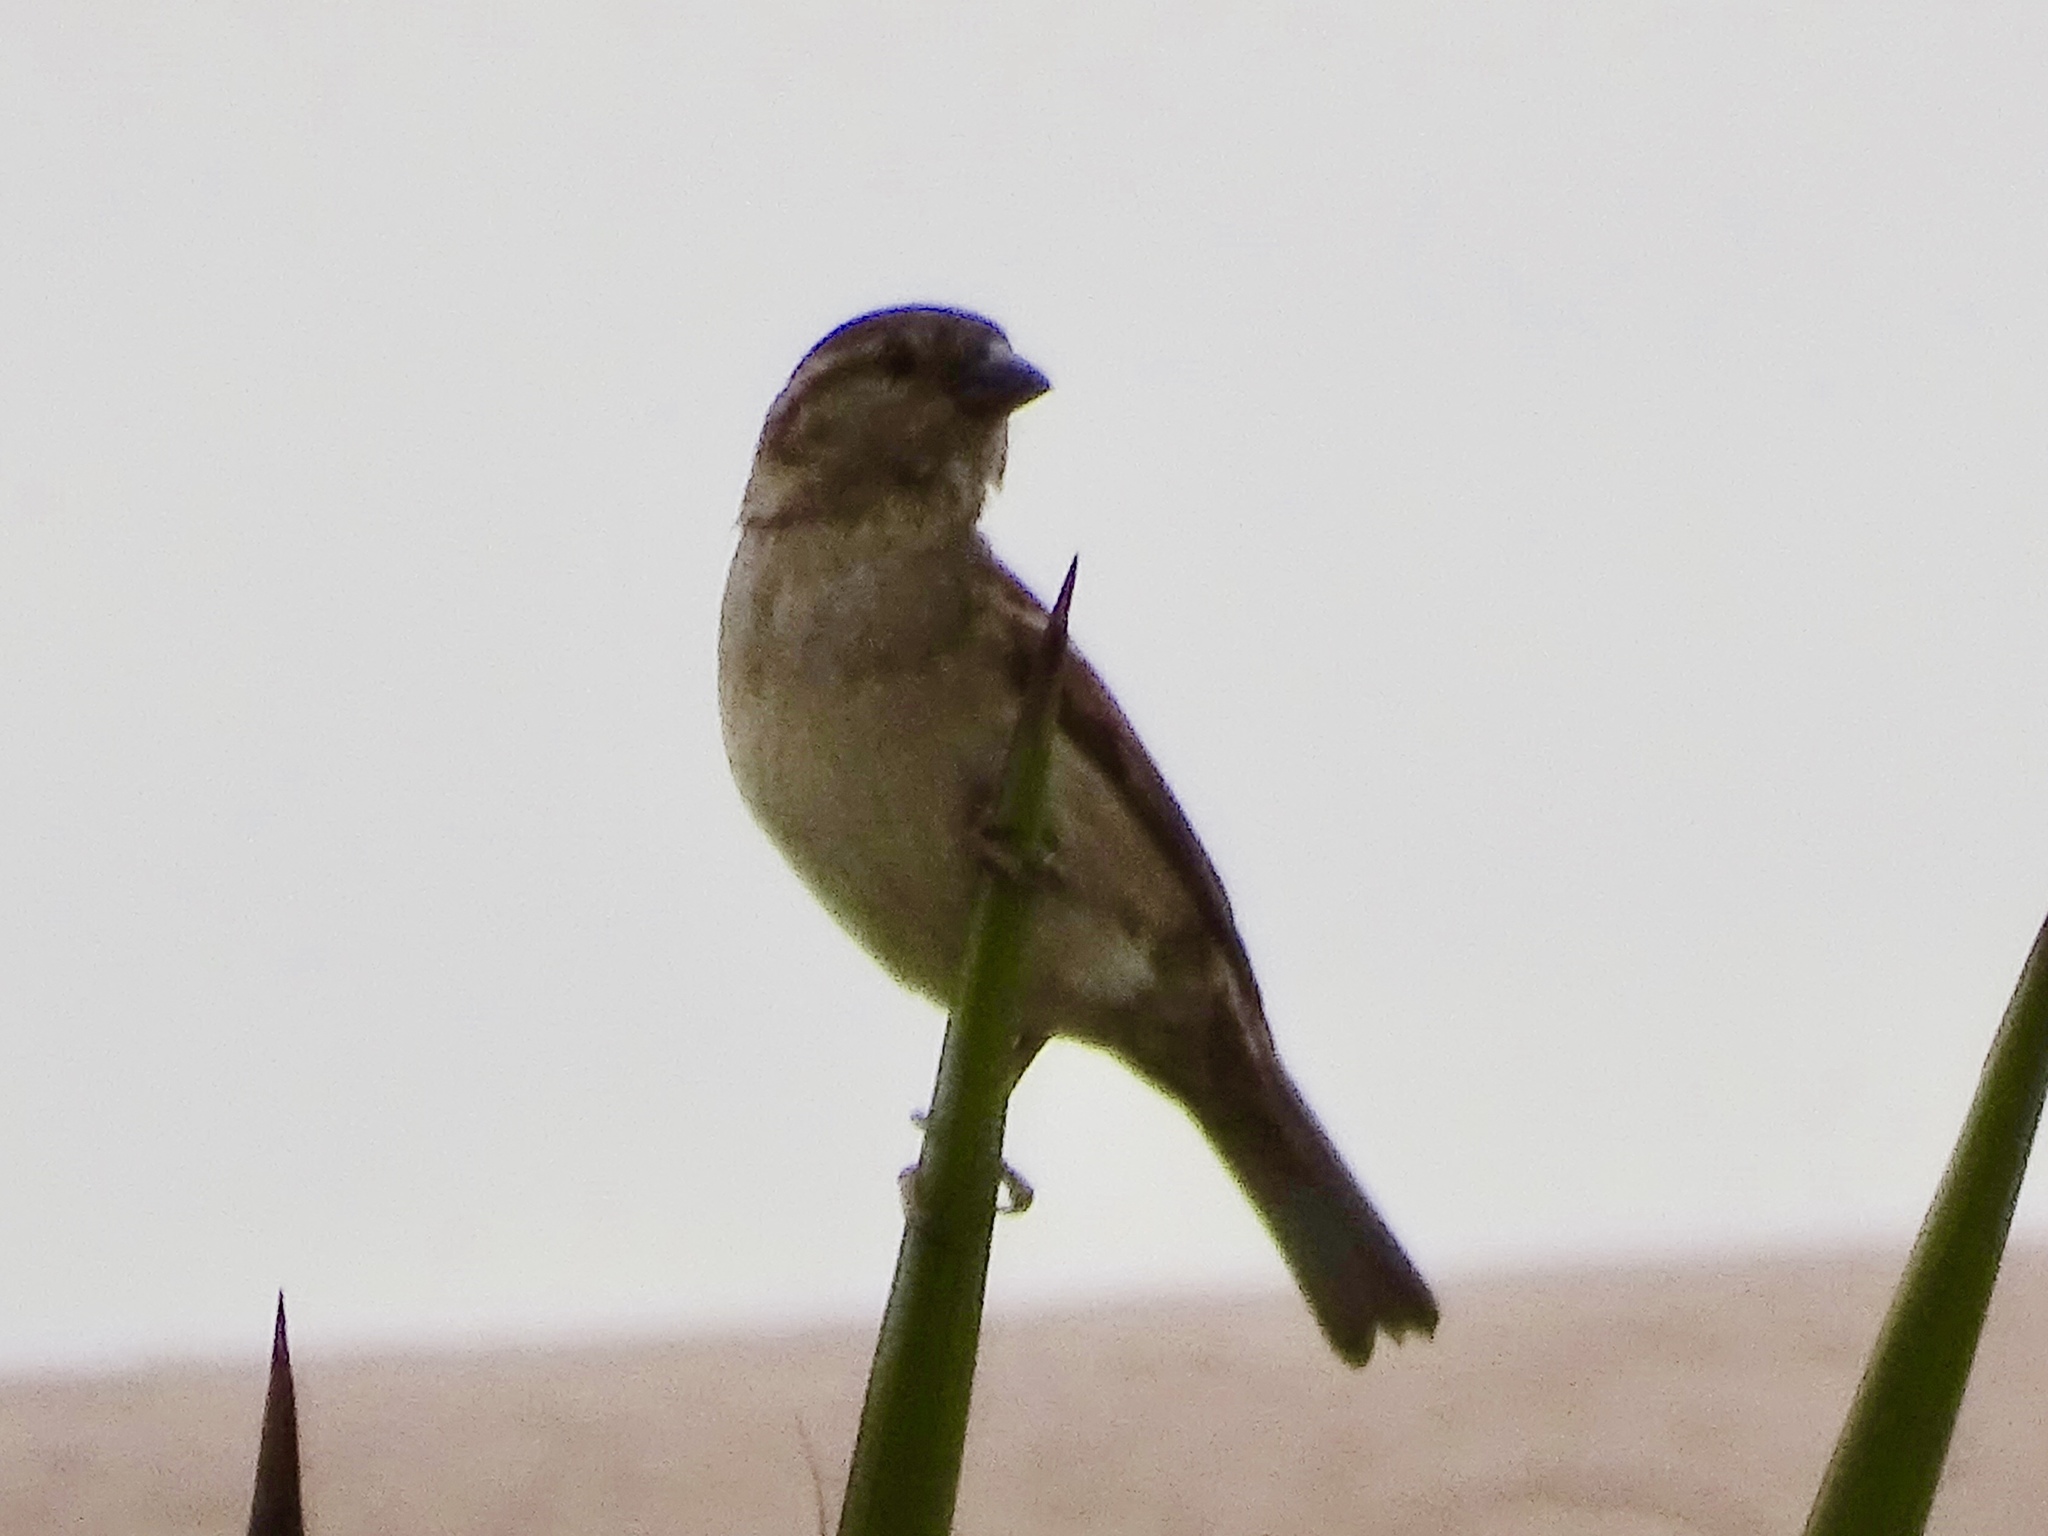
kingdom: Animalia
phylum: Chordata
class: Aves
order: Passeriformes
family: Passeridae
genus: Passer
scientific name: Passer domesticus
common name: House sparrow
